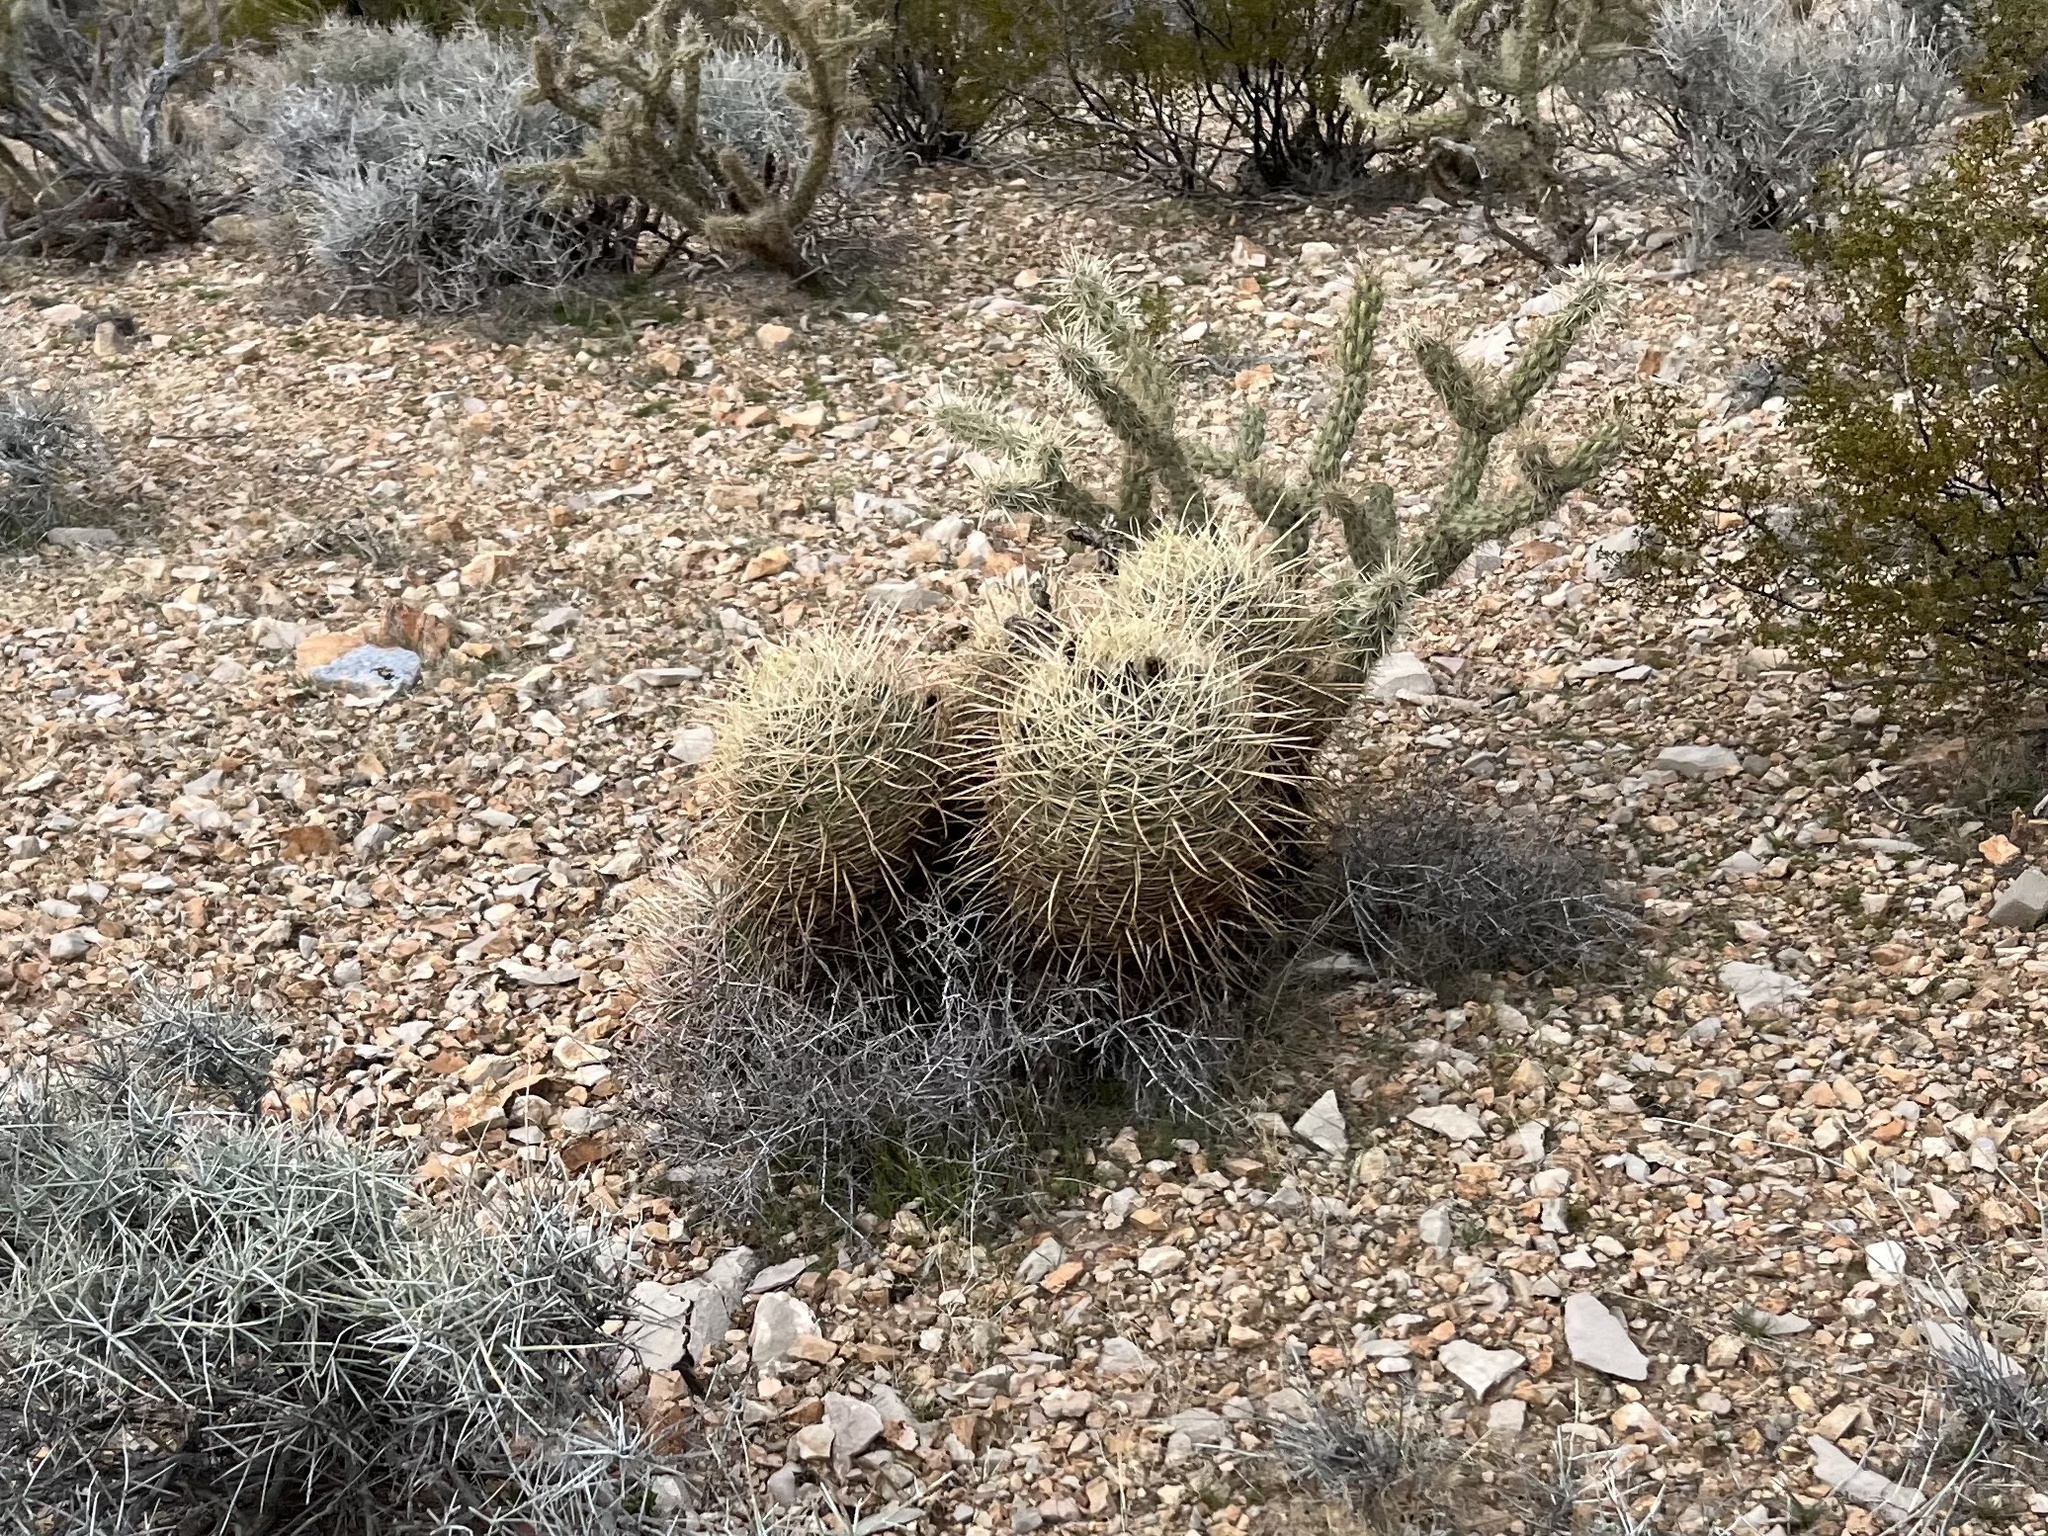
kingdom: Plantae
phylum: Tracheophyta
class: Magnoliopsida
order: Caryophyllales
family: Cactaceae
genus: Ferocactus
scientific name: Ferocactus cylindraceus
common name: California barrel cactus
